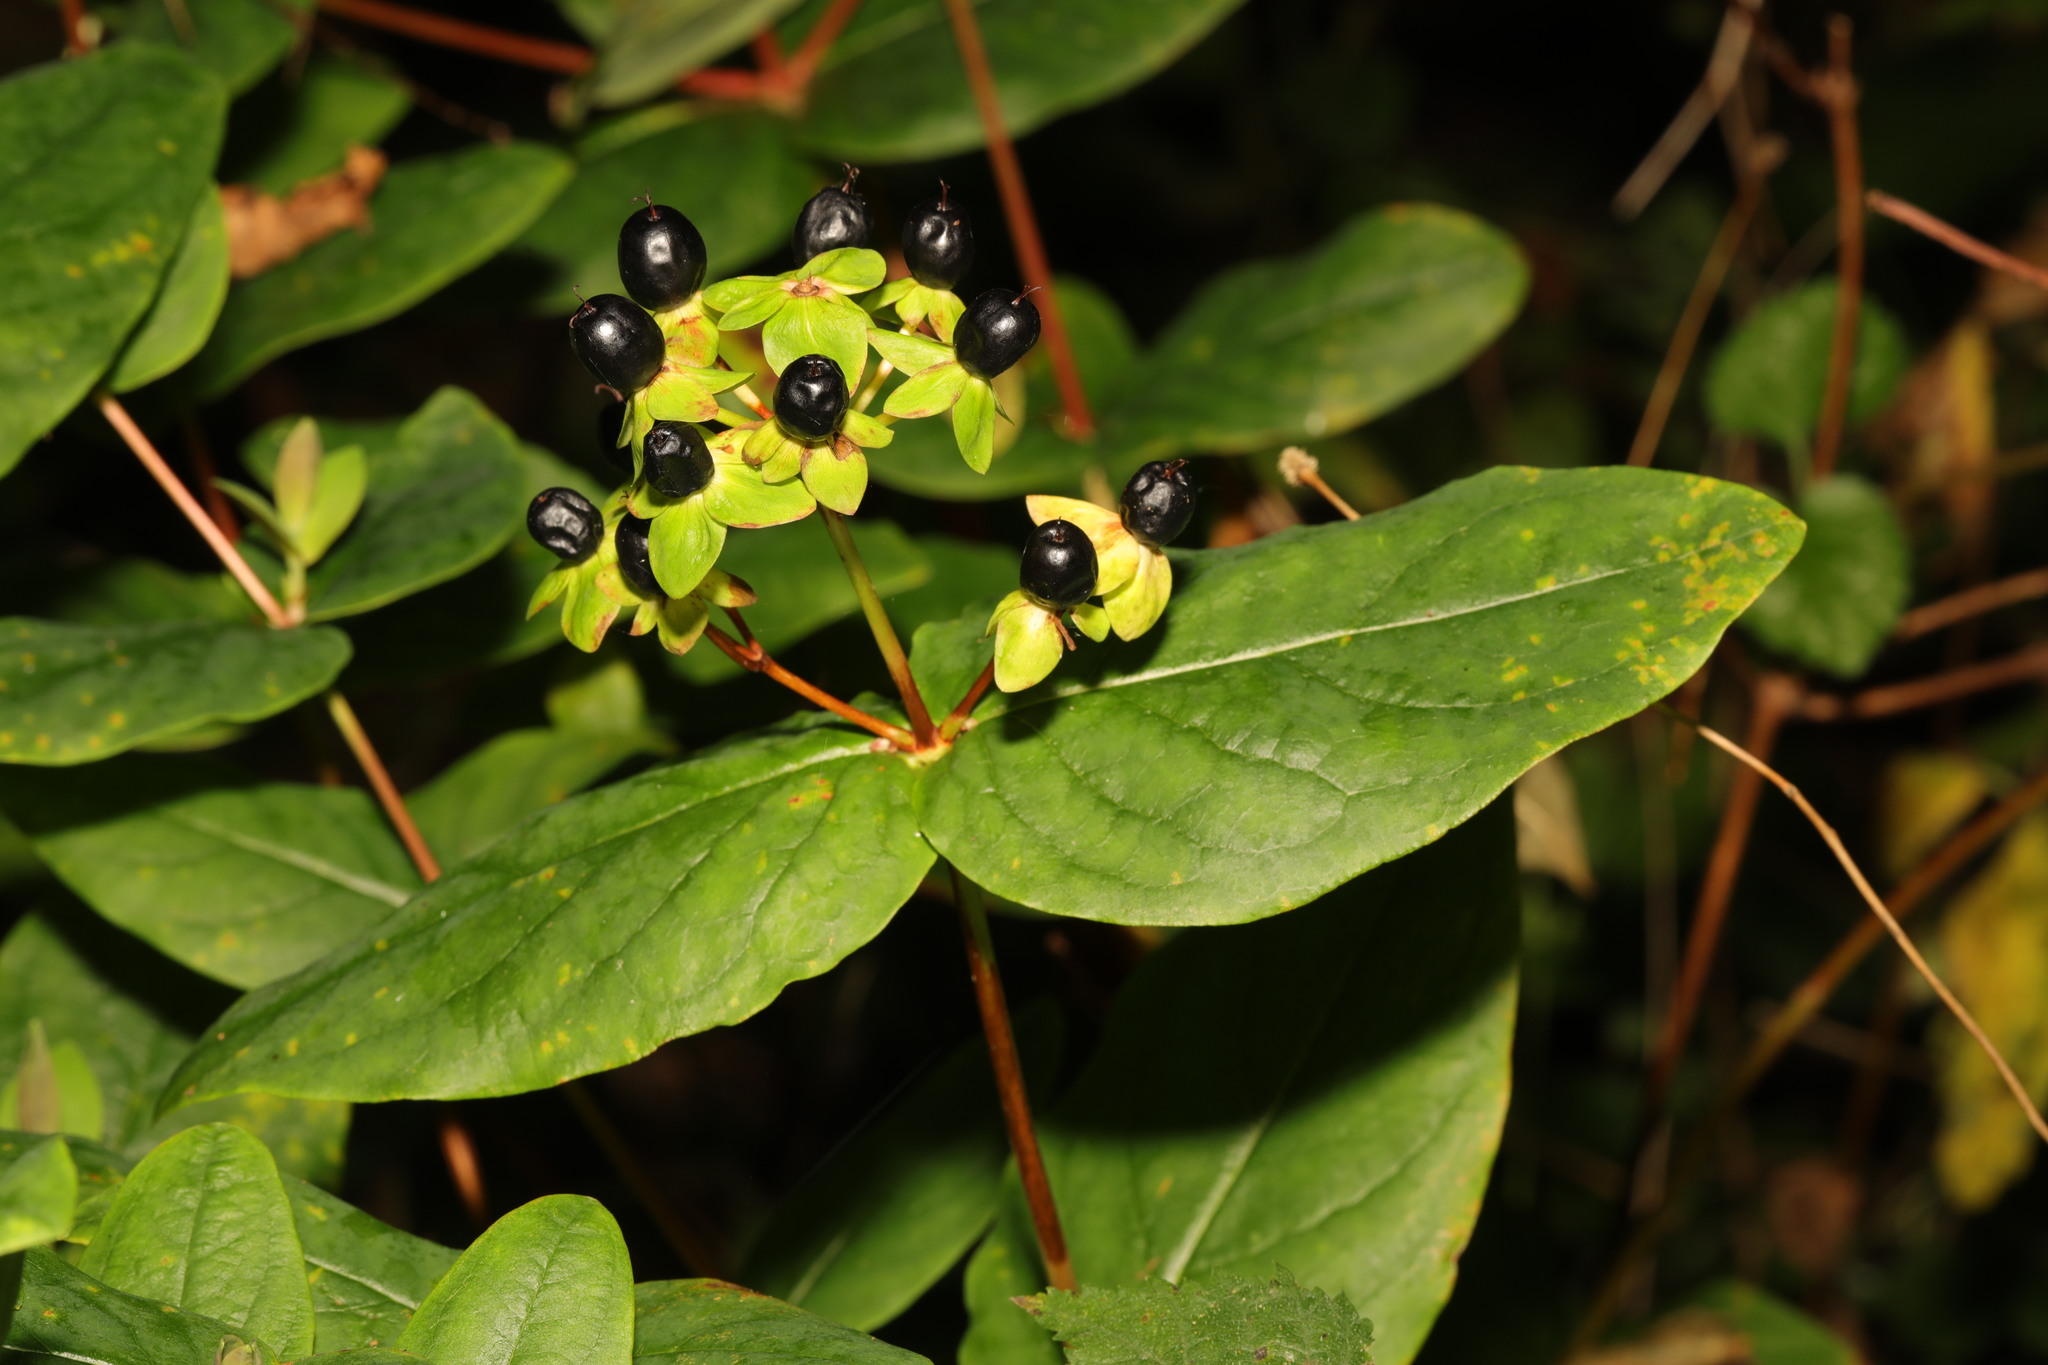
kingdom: Plantae
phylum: Tracheophyta
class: Magnoliopsida
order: Malpighiales
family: Hypericaceae
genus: Hypericum
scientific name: Hypericum androsaemum
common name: Sweet-amber
